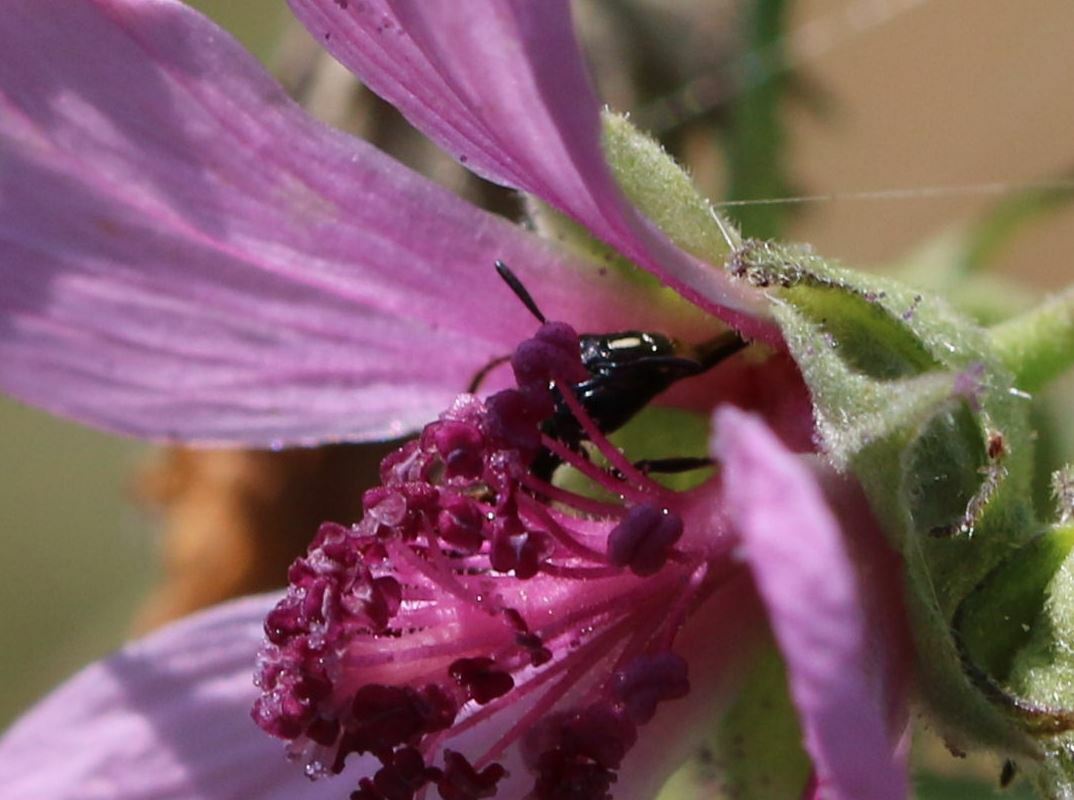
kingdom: Animalia
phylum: Arthropoda
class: Insecta
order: Hymenoptera
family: Apidae
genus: Ceratina
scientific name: Ceratina cucurbitina
